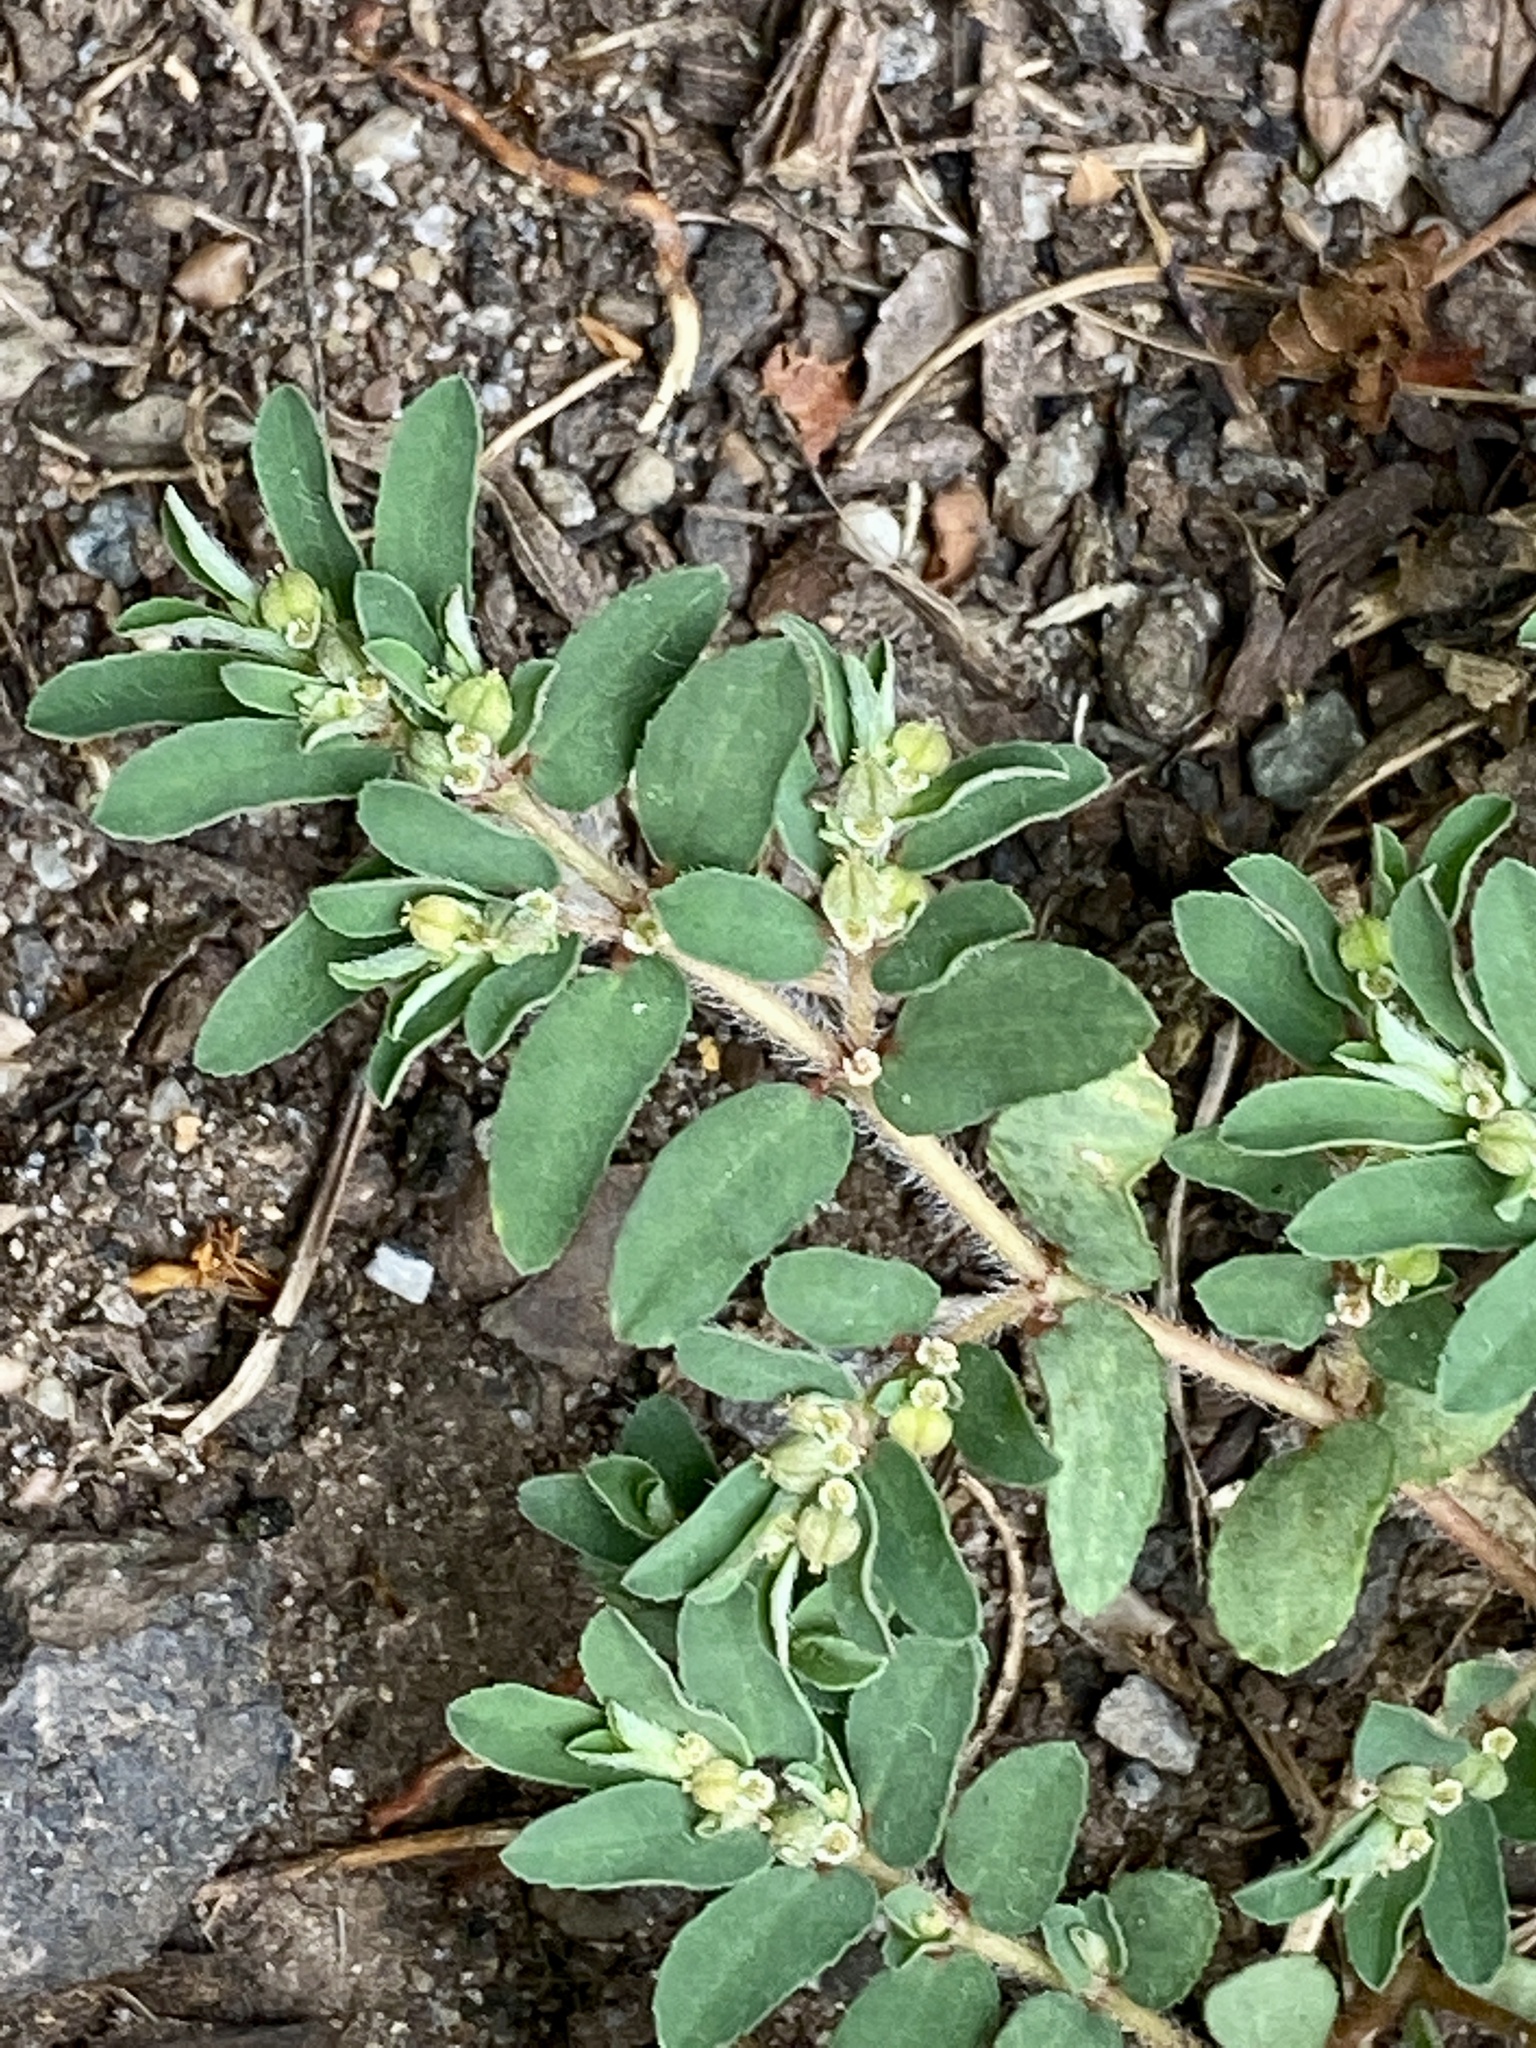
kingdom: Plantae
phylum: Tracheophyta
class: Magnoliopsida
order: Malpighiales
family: Euphorbiaceae
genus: Euphorbia
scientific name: Euphorbia maculata
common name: Spotted spurge
